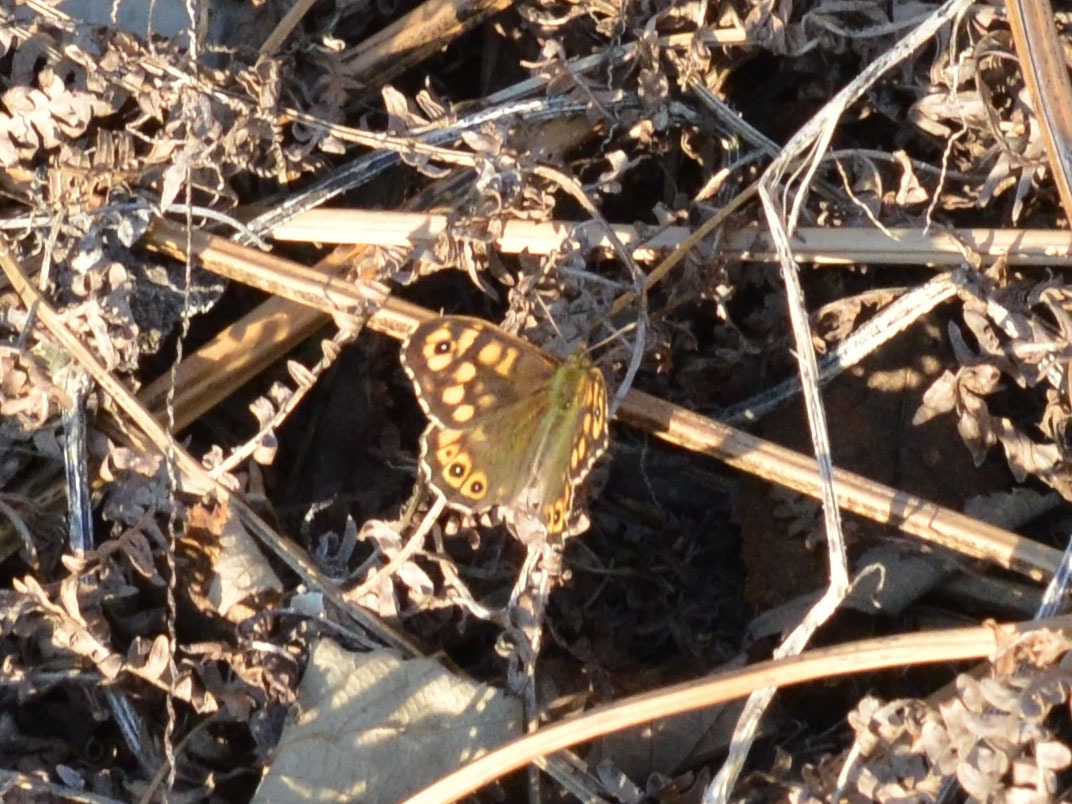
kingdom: Animalia
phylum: Arthropoda
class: Insecta
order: Lepidoptera
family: Nymphalidae
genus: Pararge
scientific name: Pararge aegeria
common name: Speckled wood
